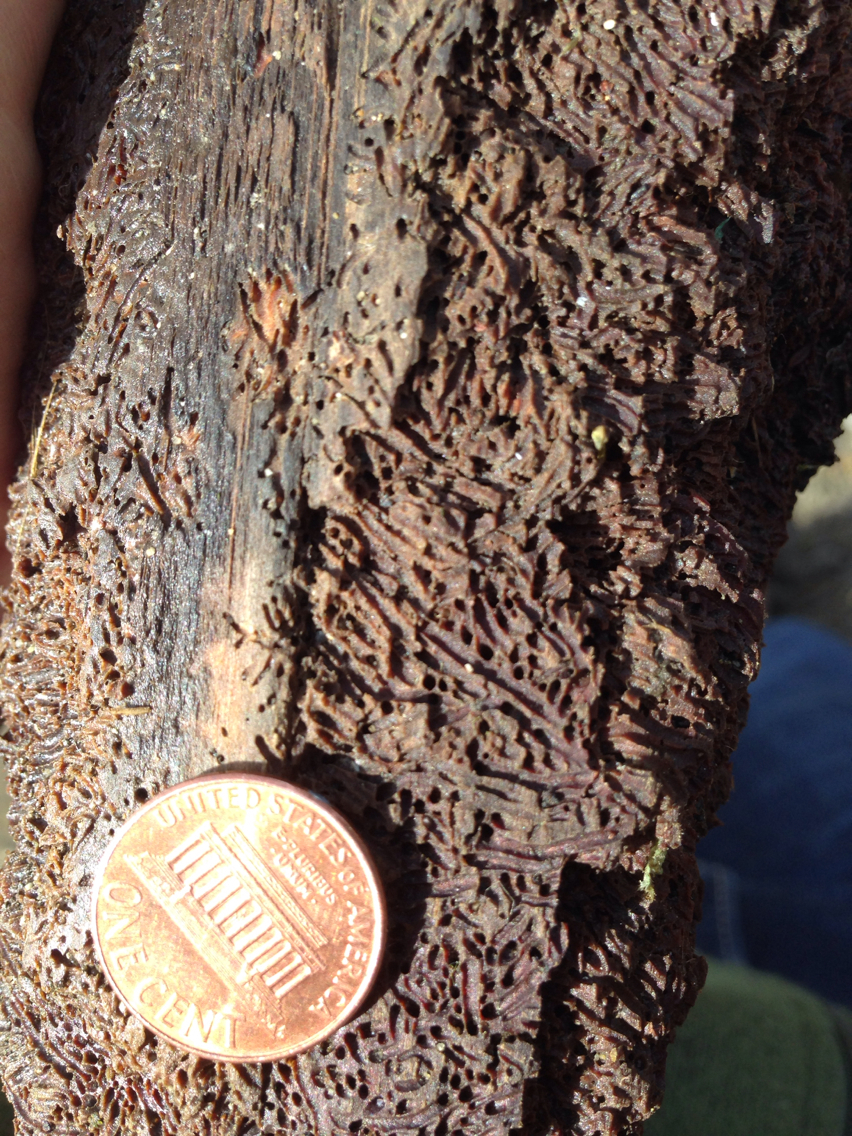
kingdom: Animalia
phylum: Arthropoda
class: Malacostraca
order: Isopoda
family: Limnoriidae
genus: Limnoria
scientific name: Limnoria tripunctata
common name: Tripunctate gribble
